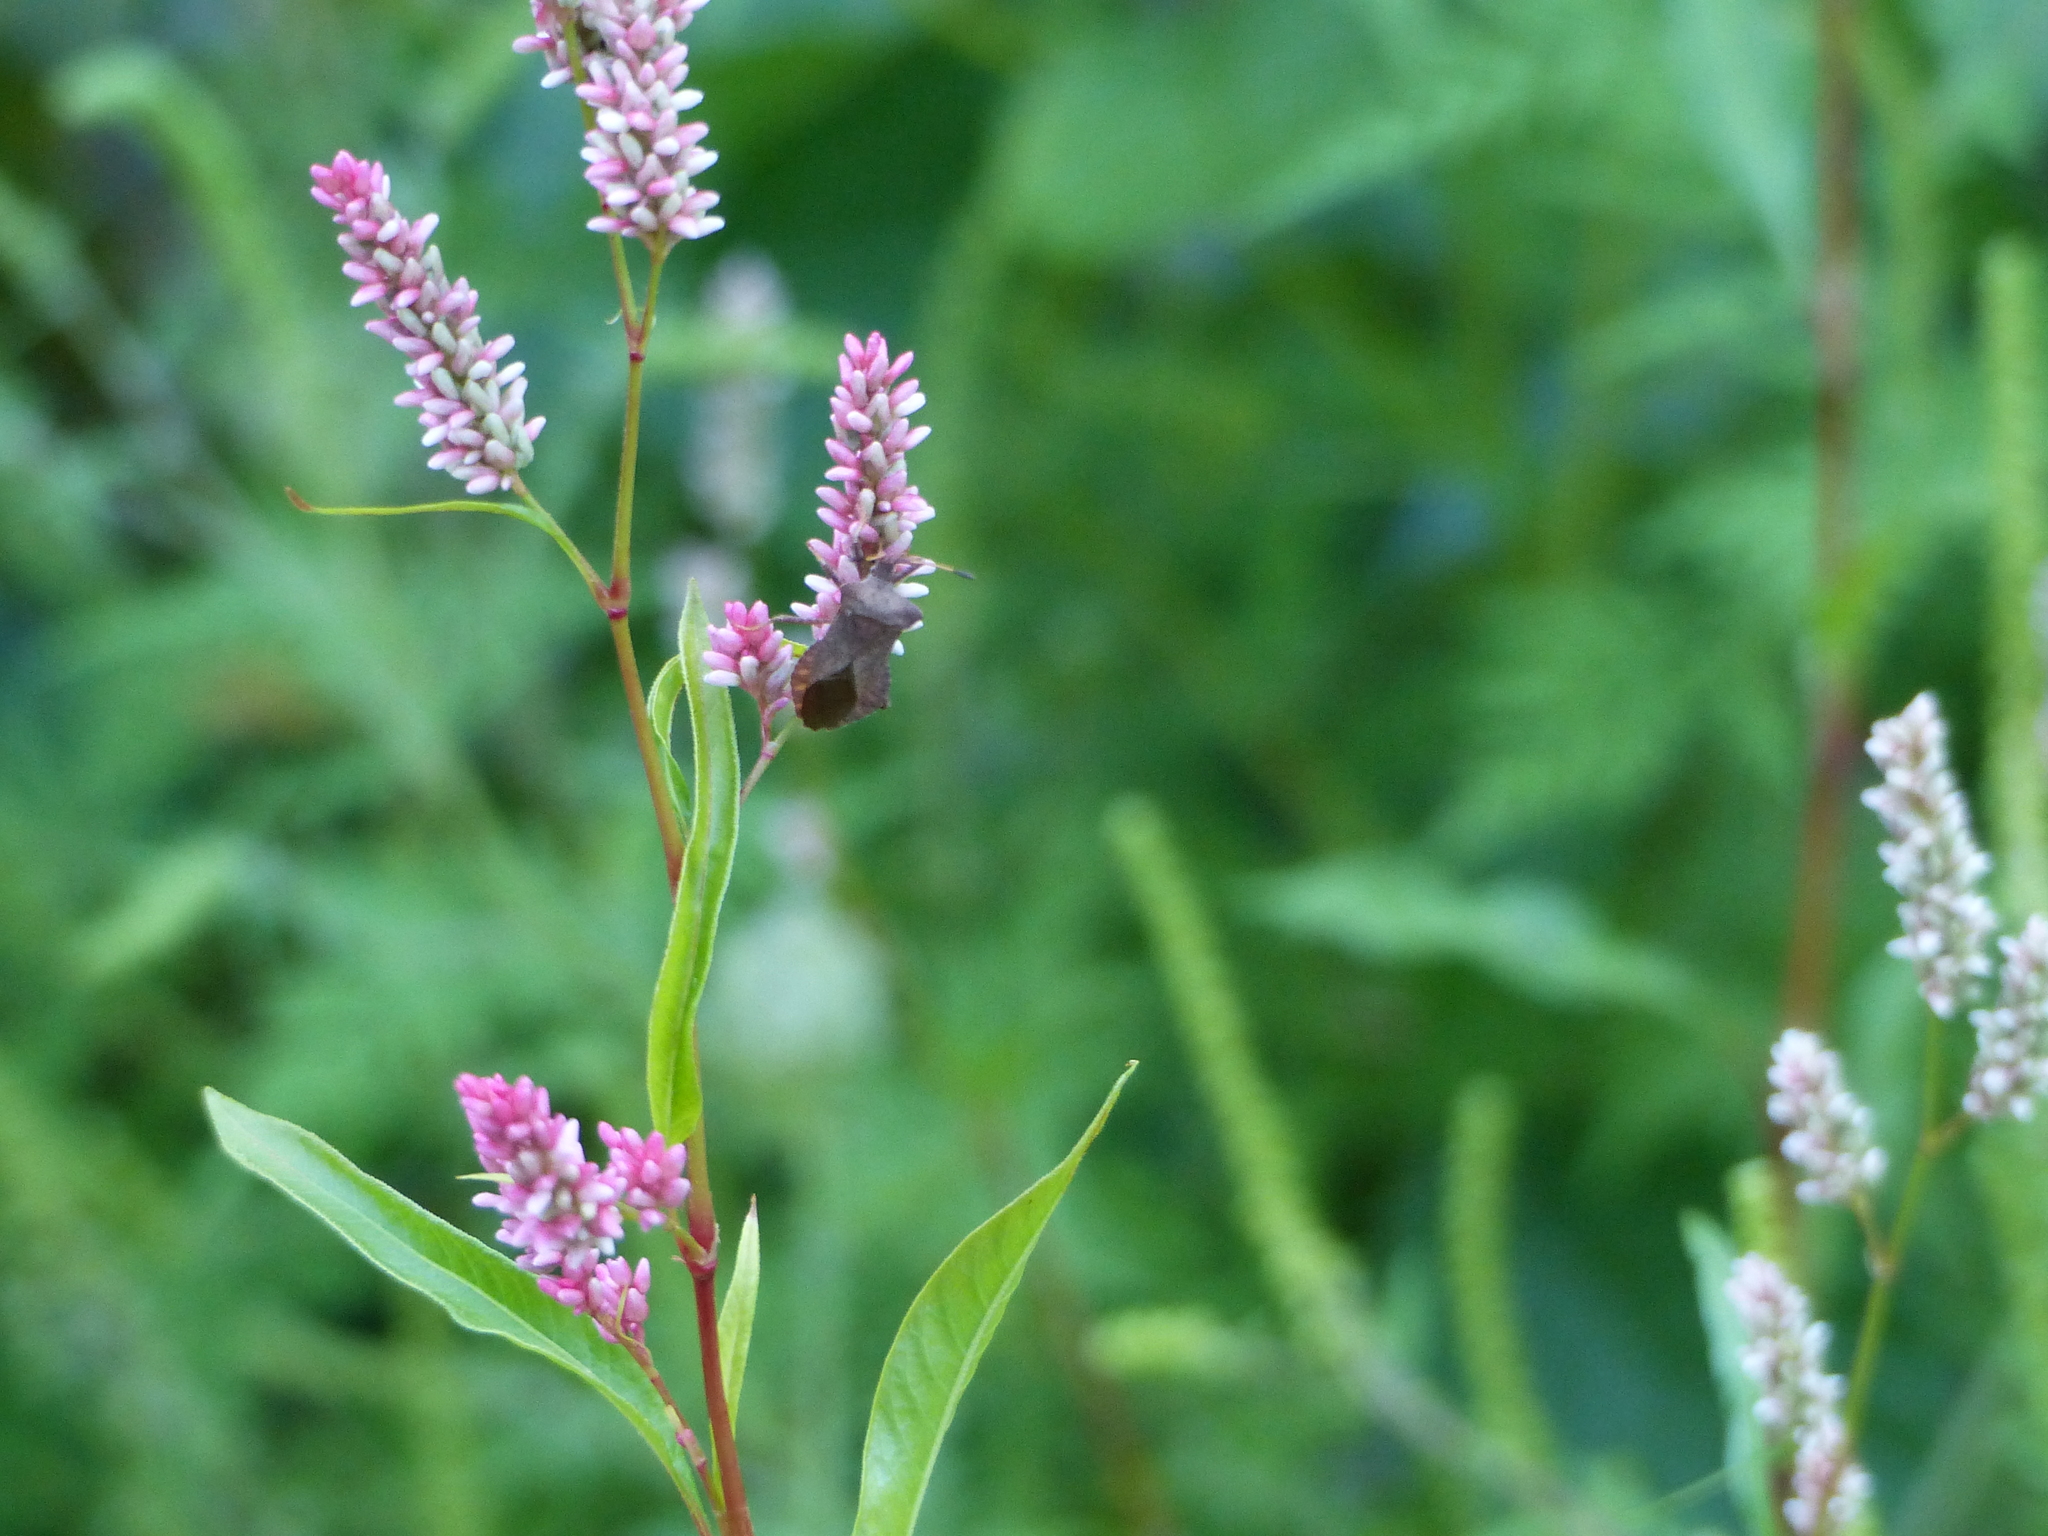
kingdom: Animalia
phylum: Arthropoda
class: Insecta
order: Hemiptera
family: Coreidae
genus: Coreus
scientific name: Coreus marginatus
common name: Dock bug
